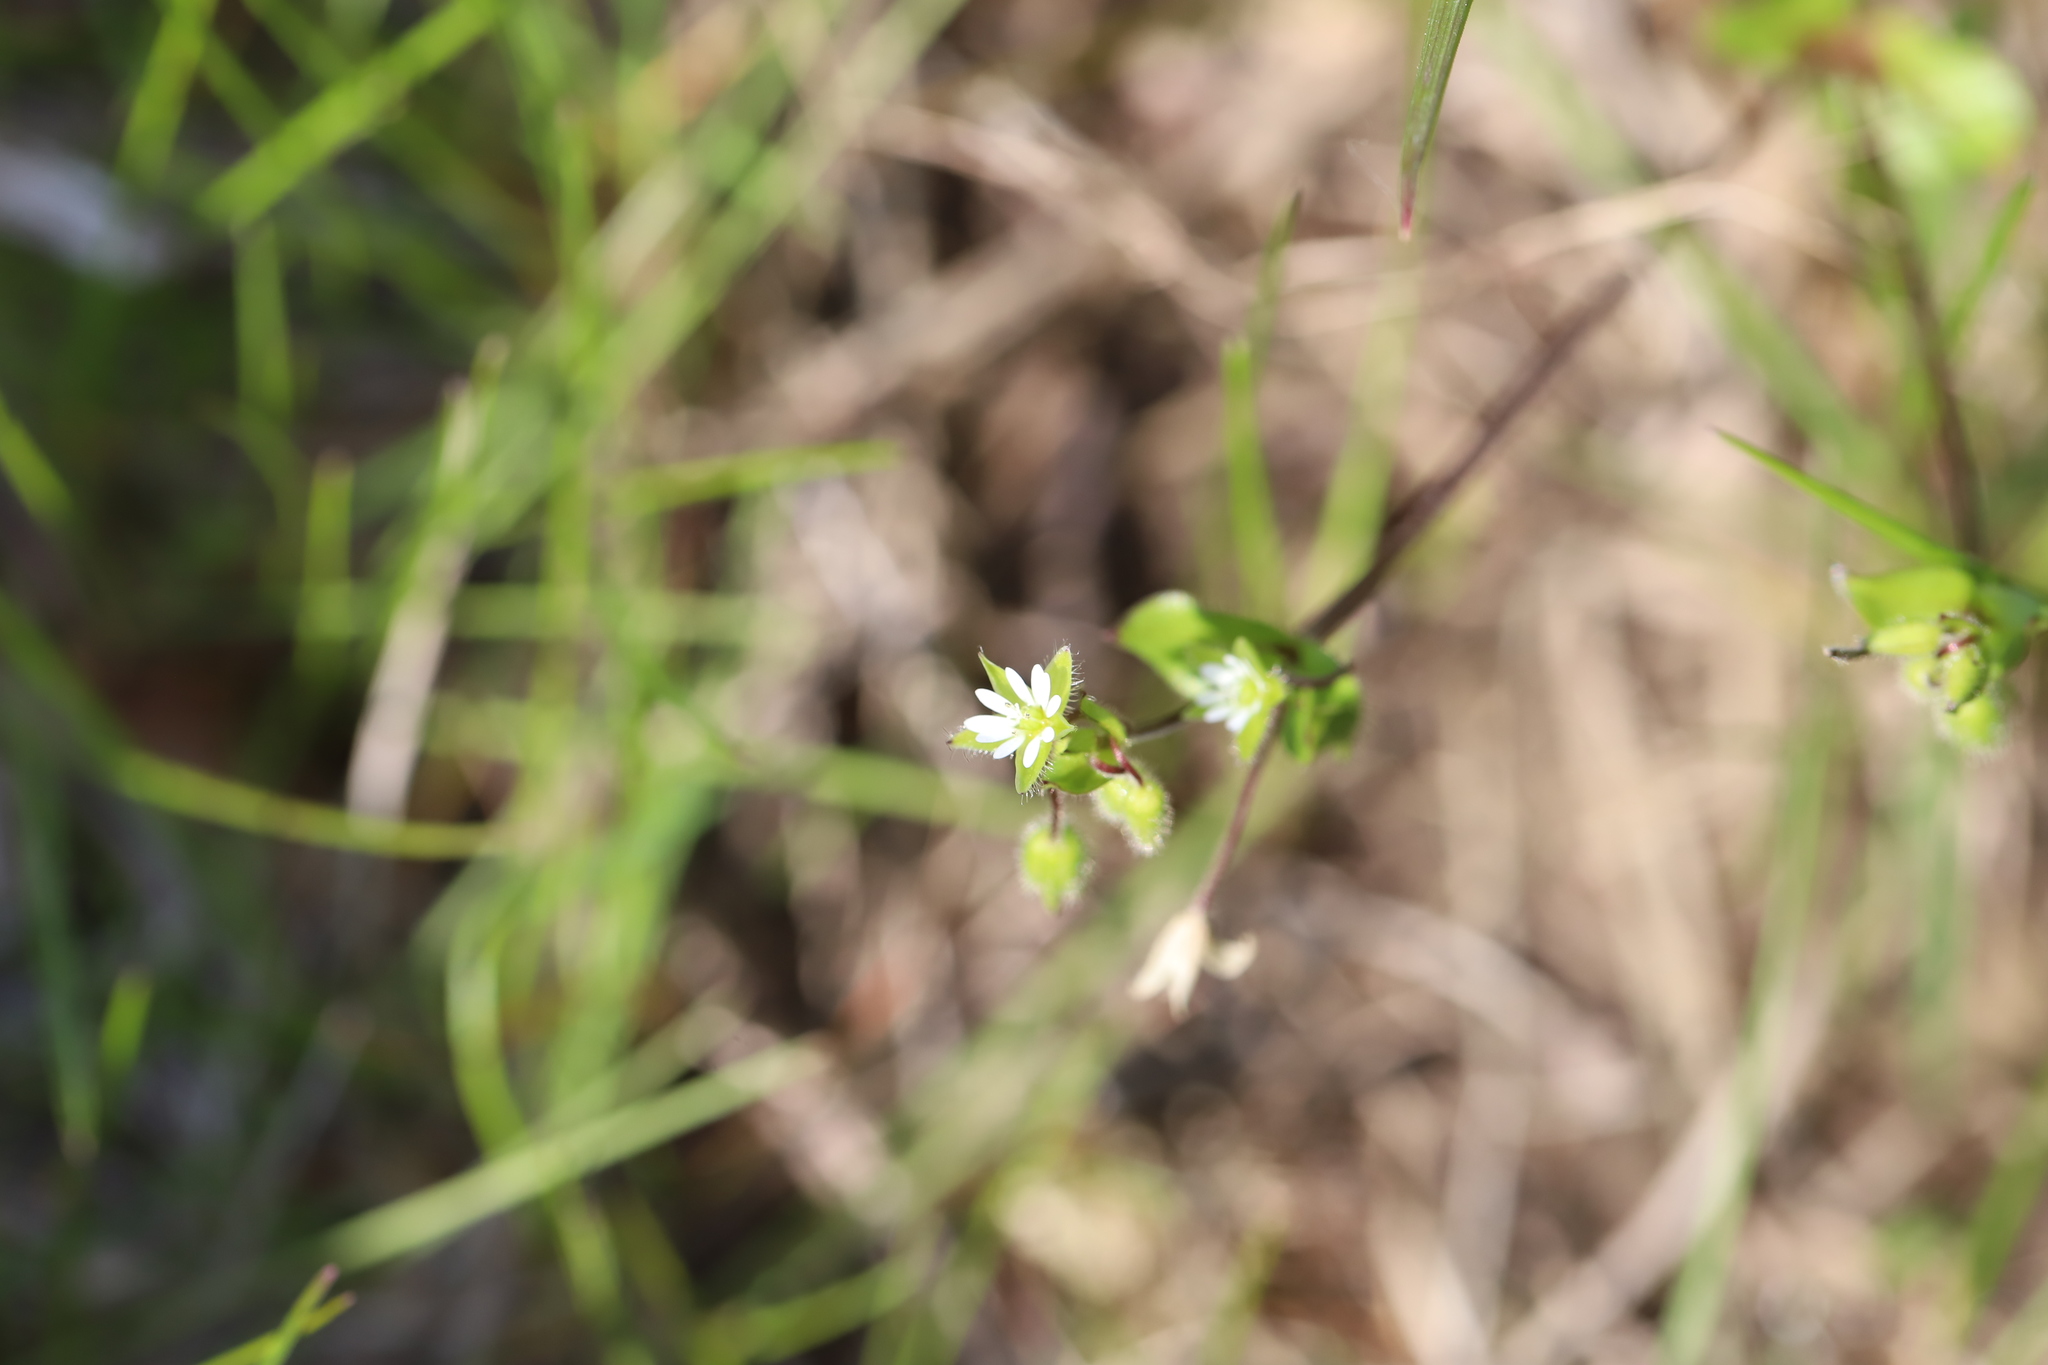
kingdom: Plantae
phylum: Tracheophyta
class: Magnoliopsida
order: Caryophyllales
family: Caryophyllaceae
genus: Stellaria
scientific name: Stellaria media
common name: Common chickweed
